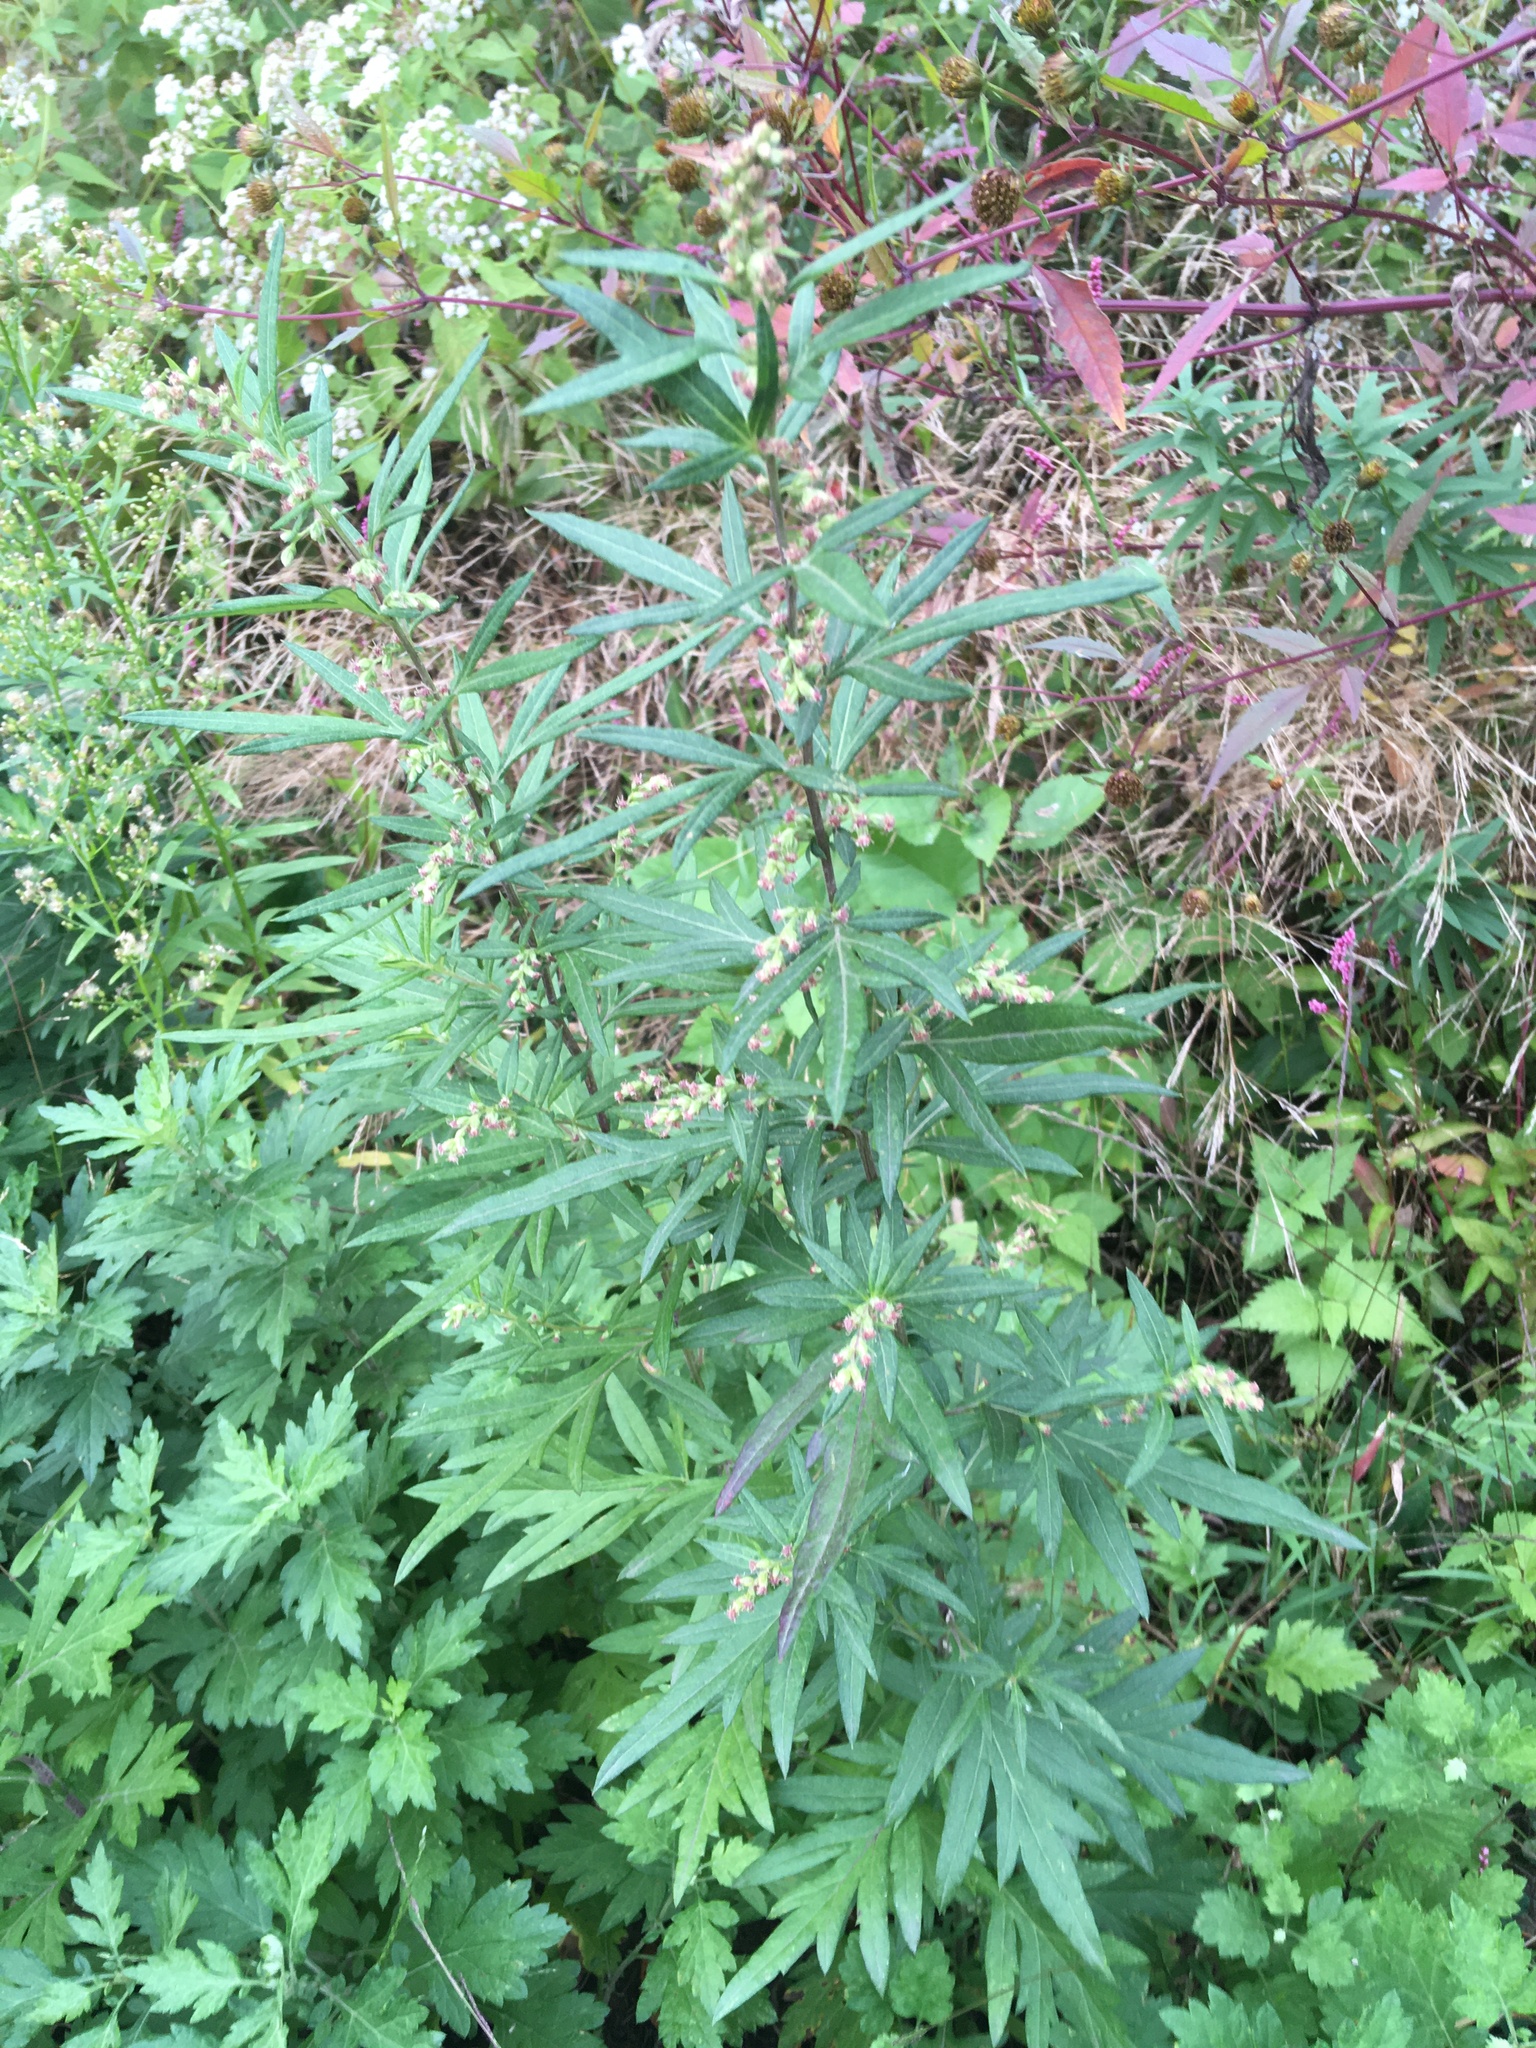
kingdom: Plantae
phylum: Tracheophyta
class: Magnoliopsida
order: Asterales
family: Asteraceae
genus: Artemisia
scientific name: Artemisia vulgaris
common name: Mugwort
